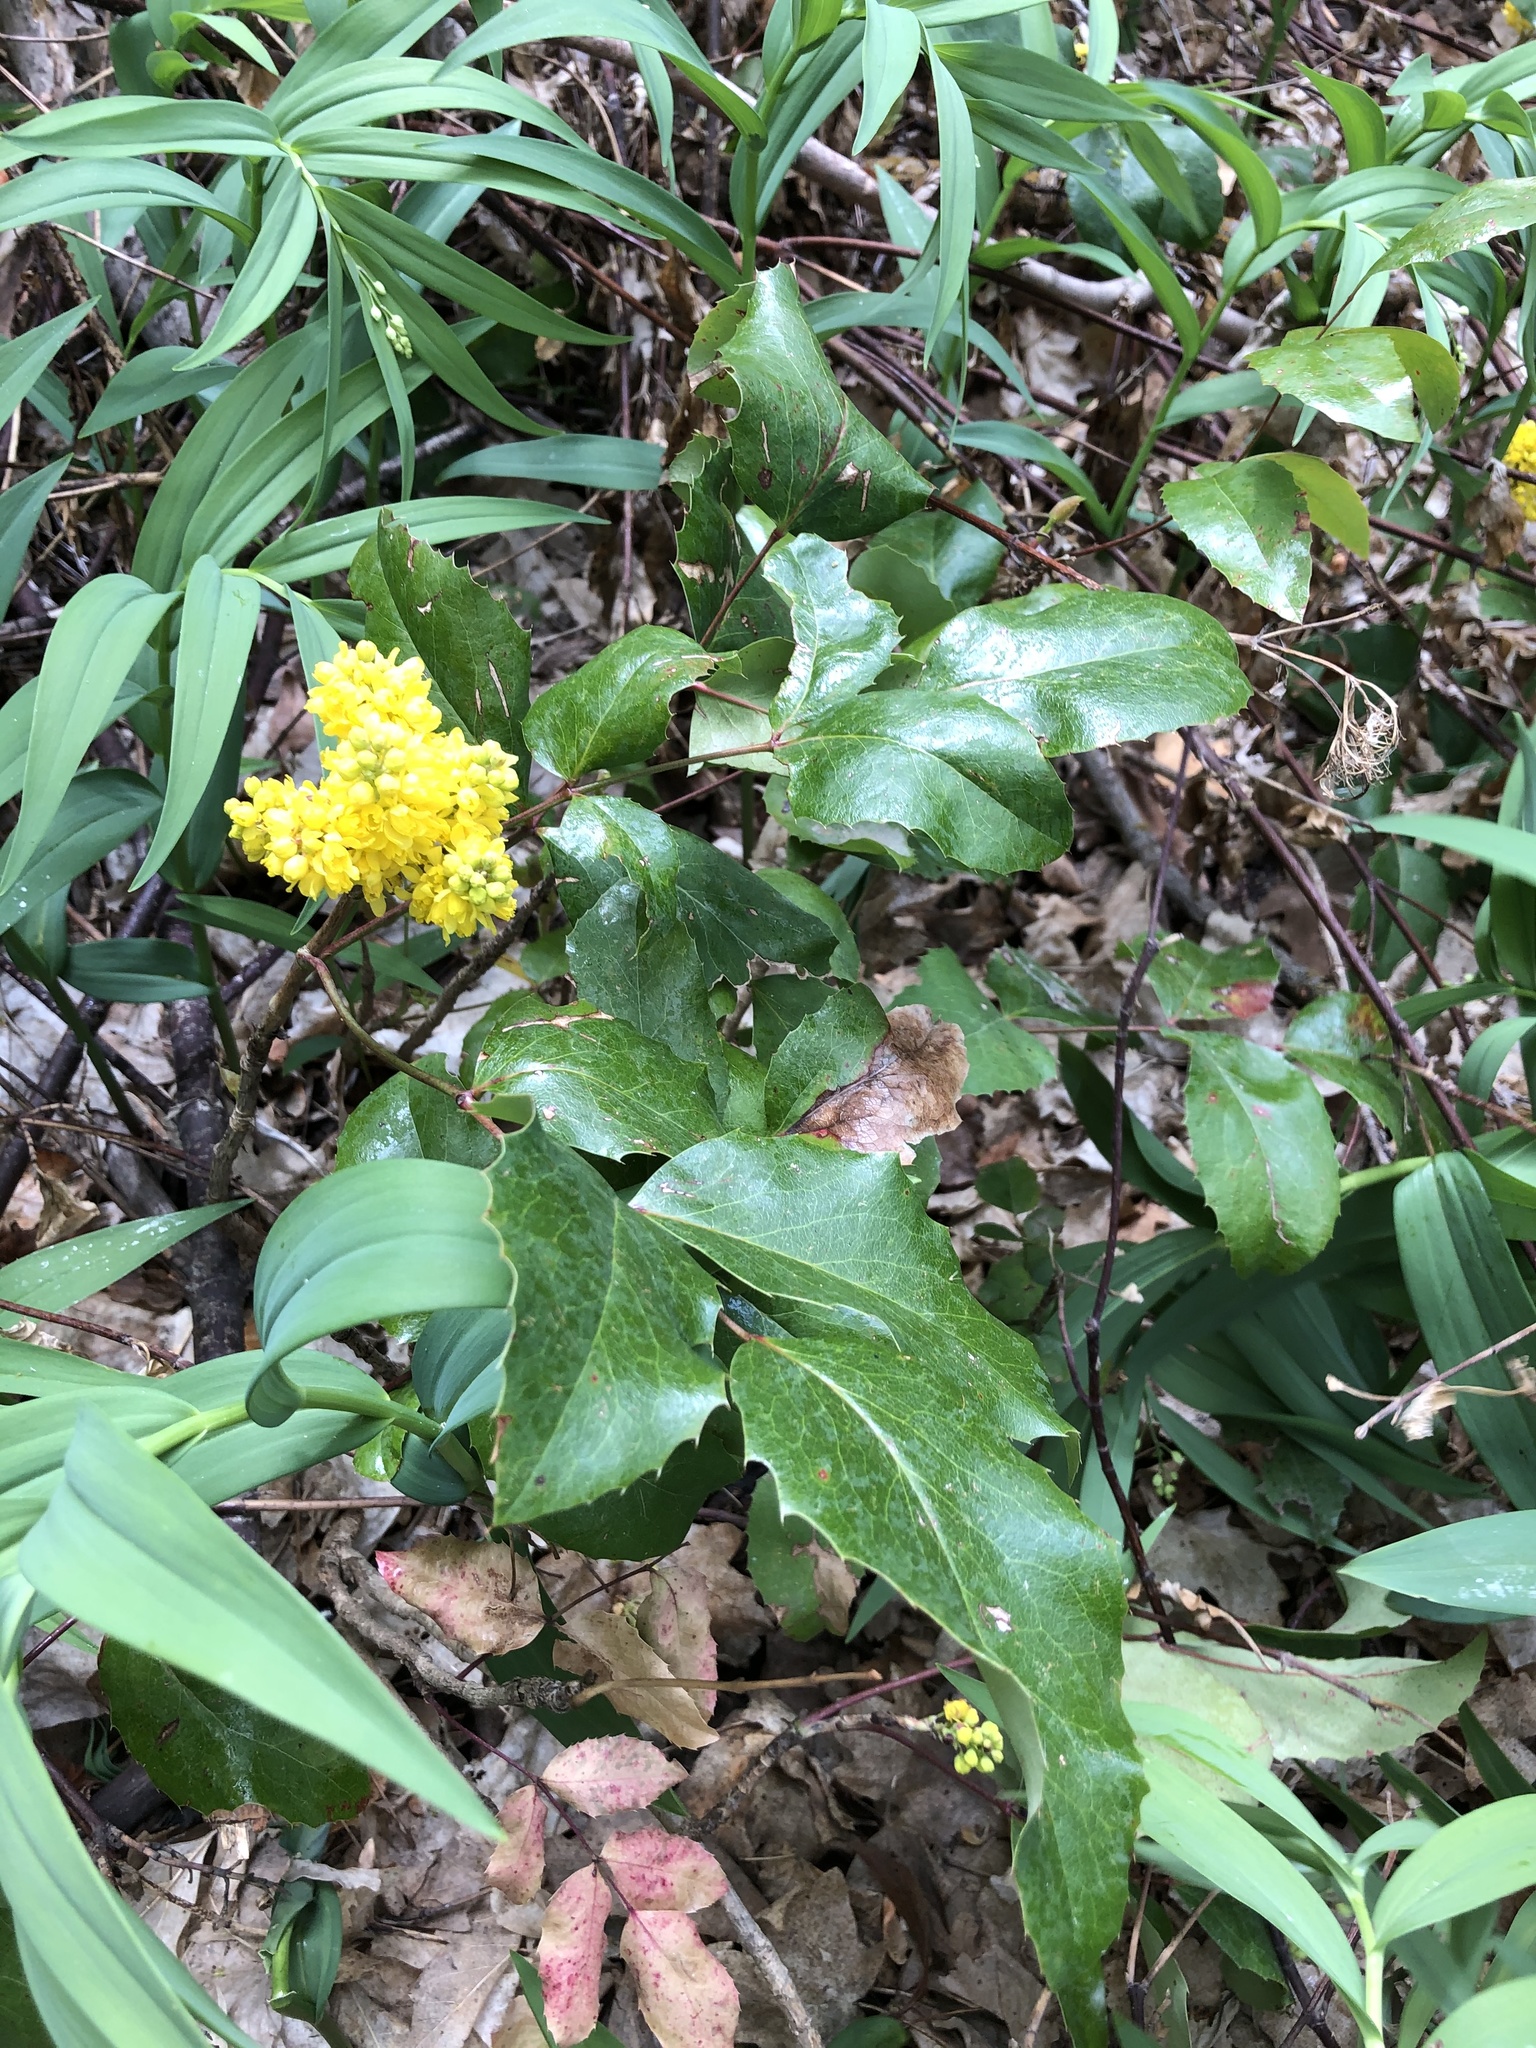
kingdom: Plantae
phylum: Tracheophyta
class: Magnoliopsida
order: Ranunculales
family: Berberidaceae
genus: Mahonia
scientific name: Mahonia repens
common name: Creeping oregon-grape
